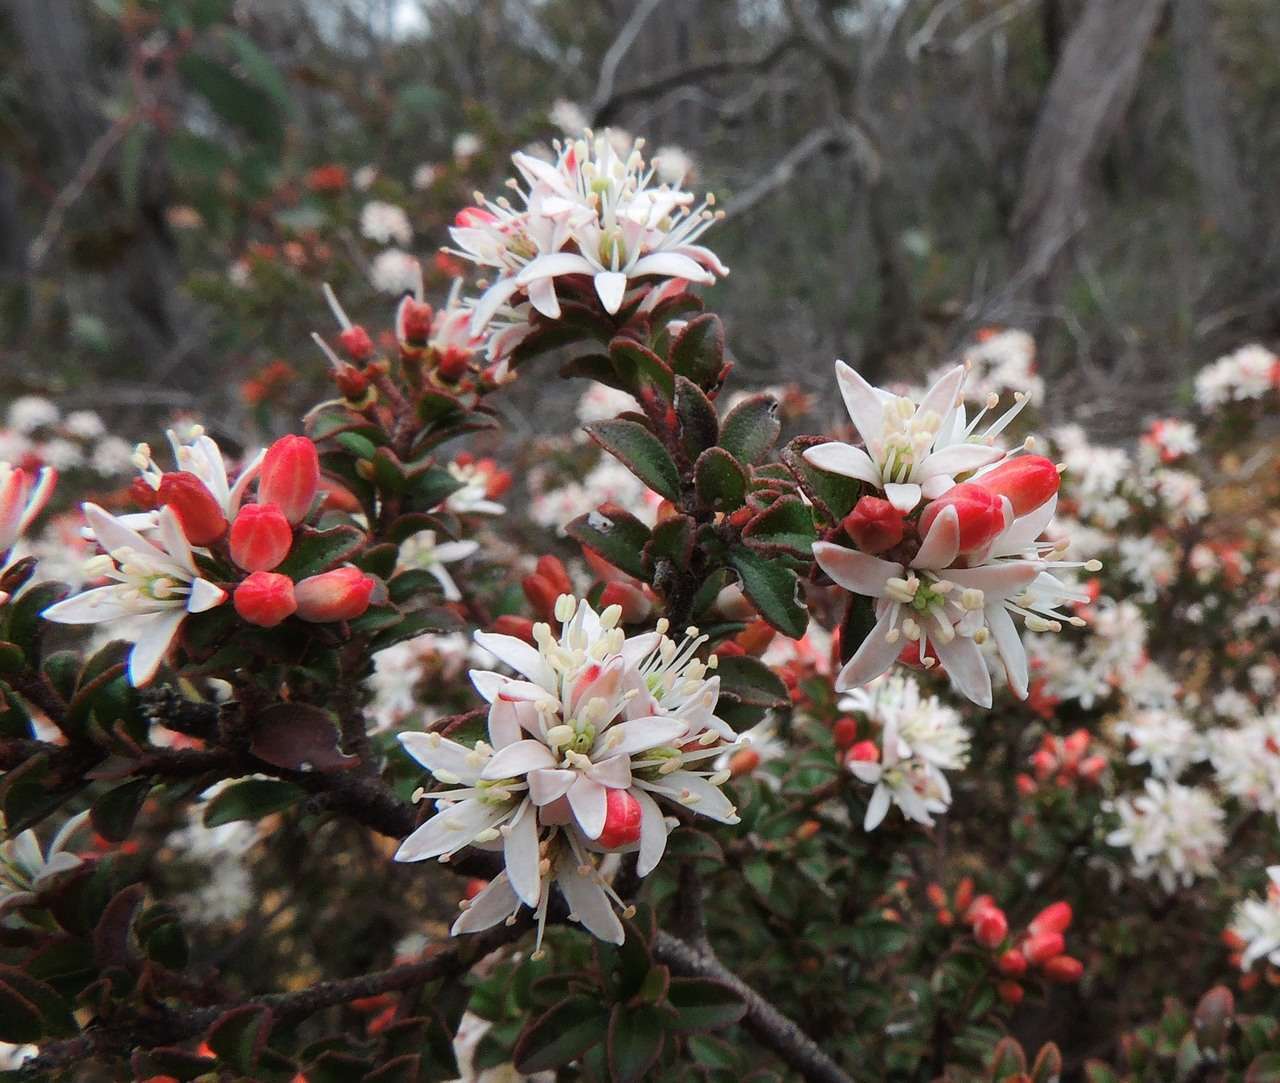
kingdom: Plantae
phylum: Tracheophyta
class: Magnoliopsida
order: Sapindales
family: Rutaceae
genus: Leionema
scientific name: Leionema lamprophyllum
